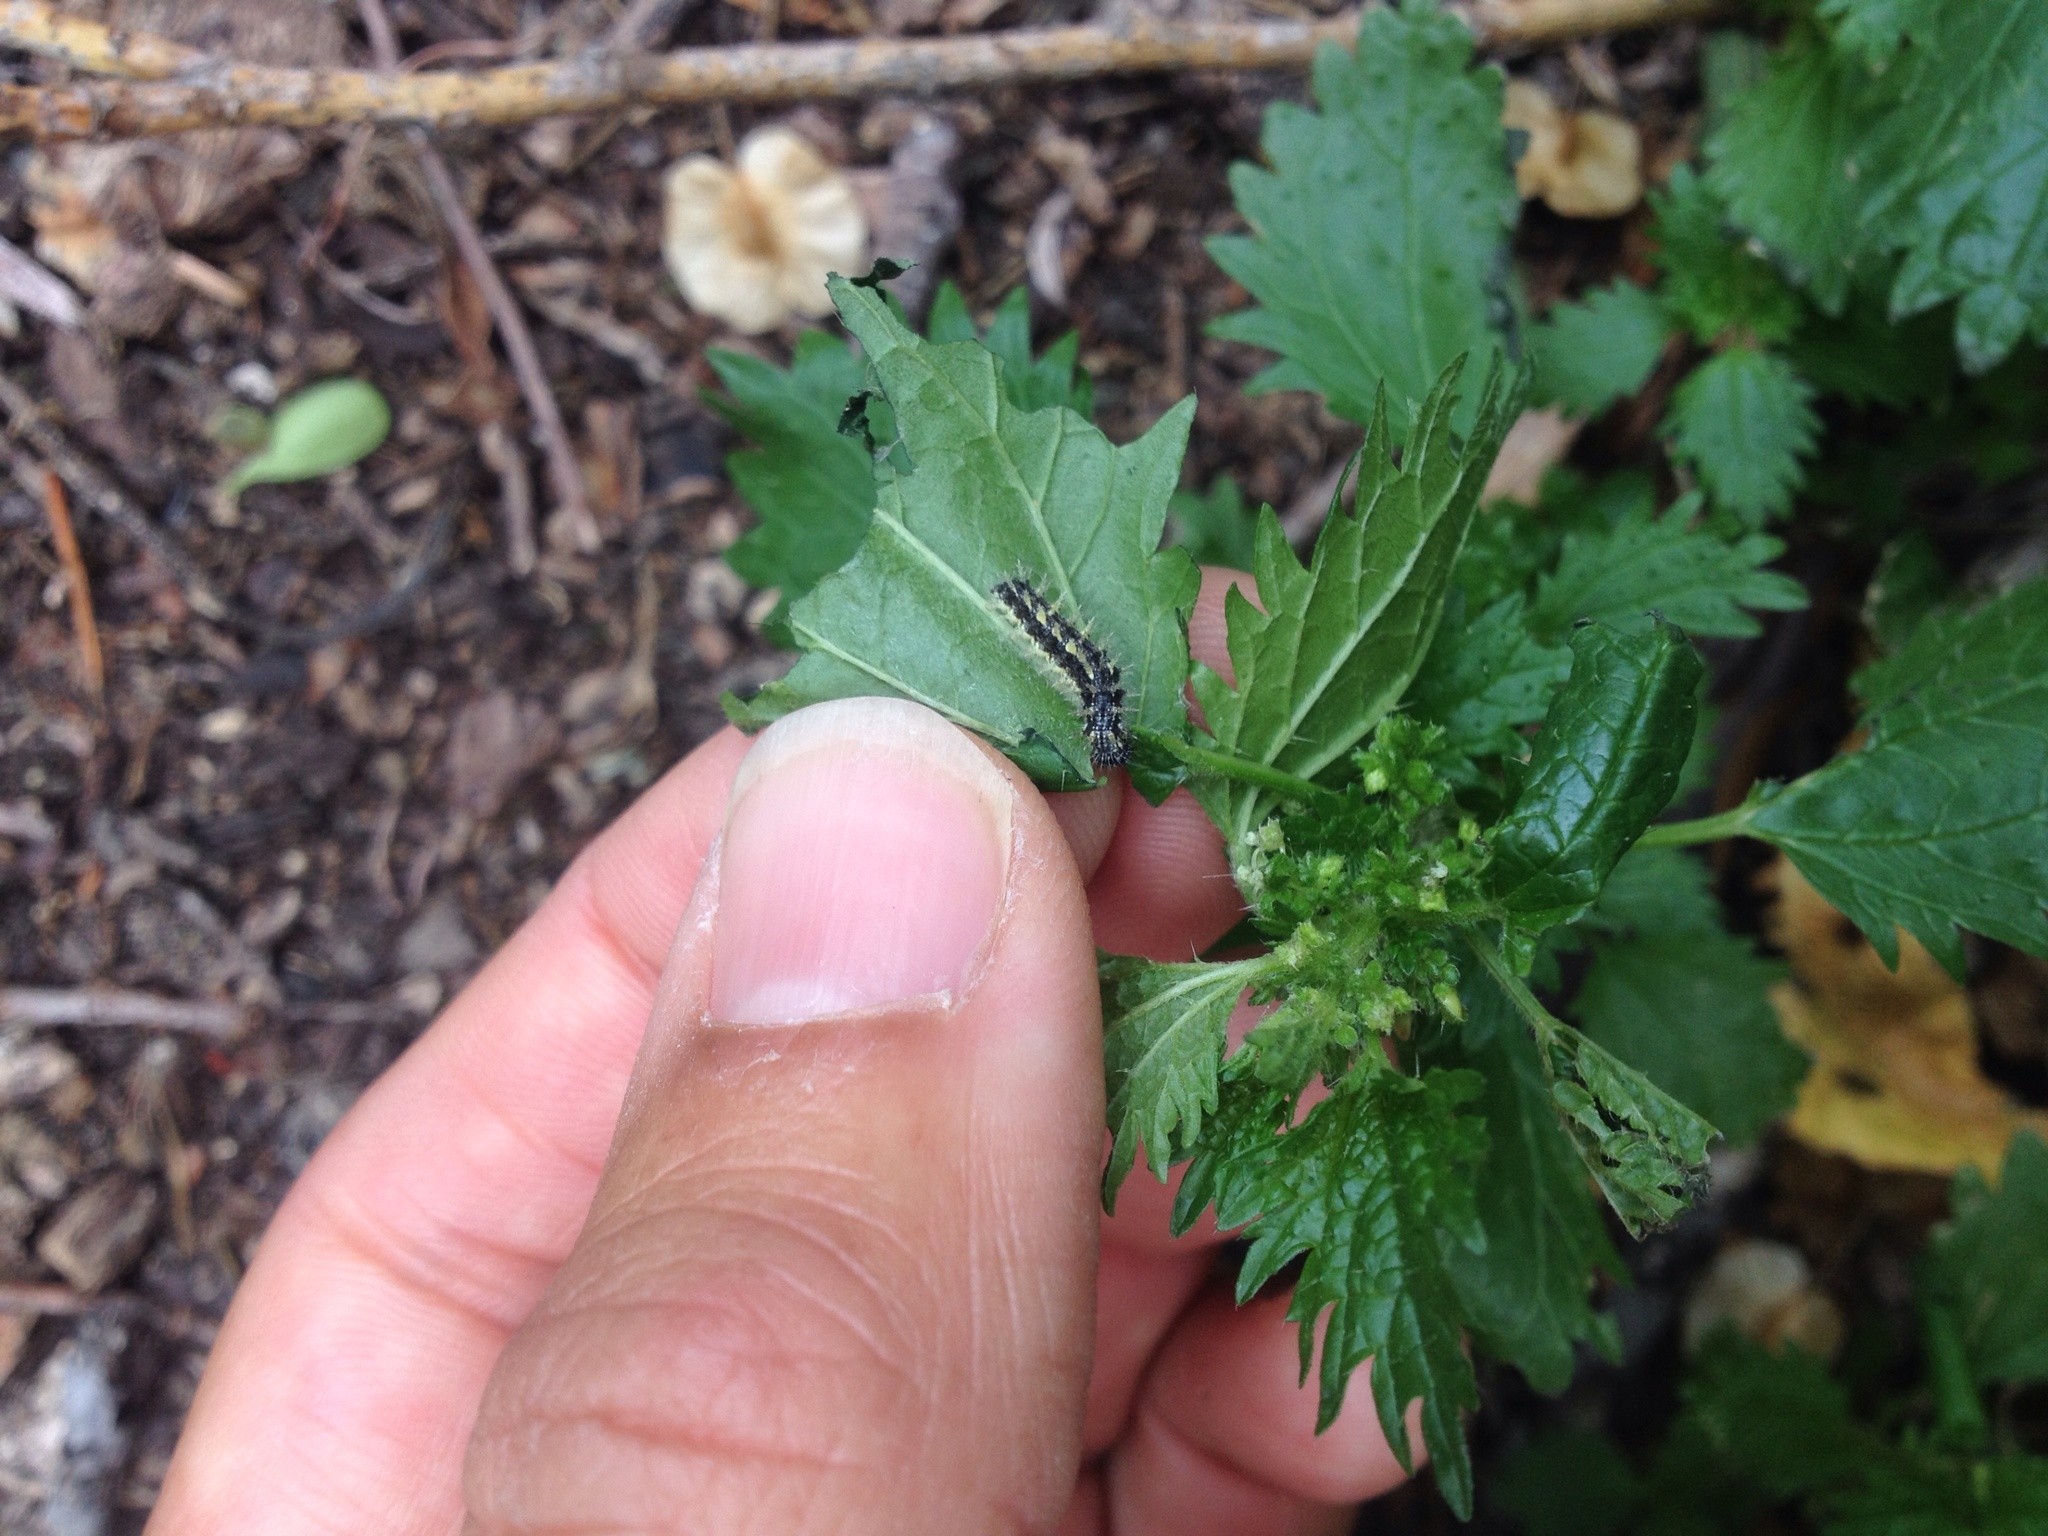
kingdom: Animalia
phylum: Arthropoda
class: Insecta
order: Lepidoptera
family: Nymphalidae
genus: Vanessa
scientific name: Vanessa itea
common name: Yellow admiral
